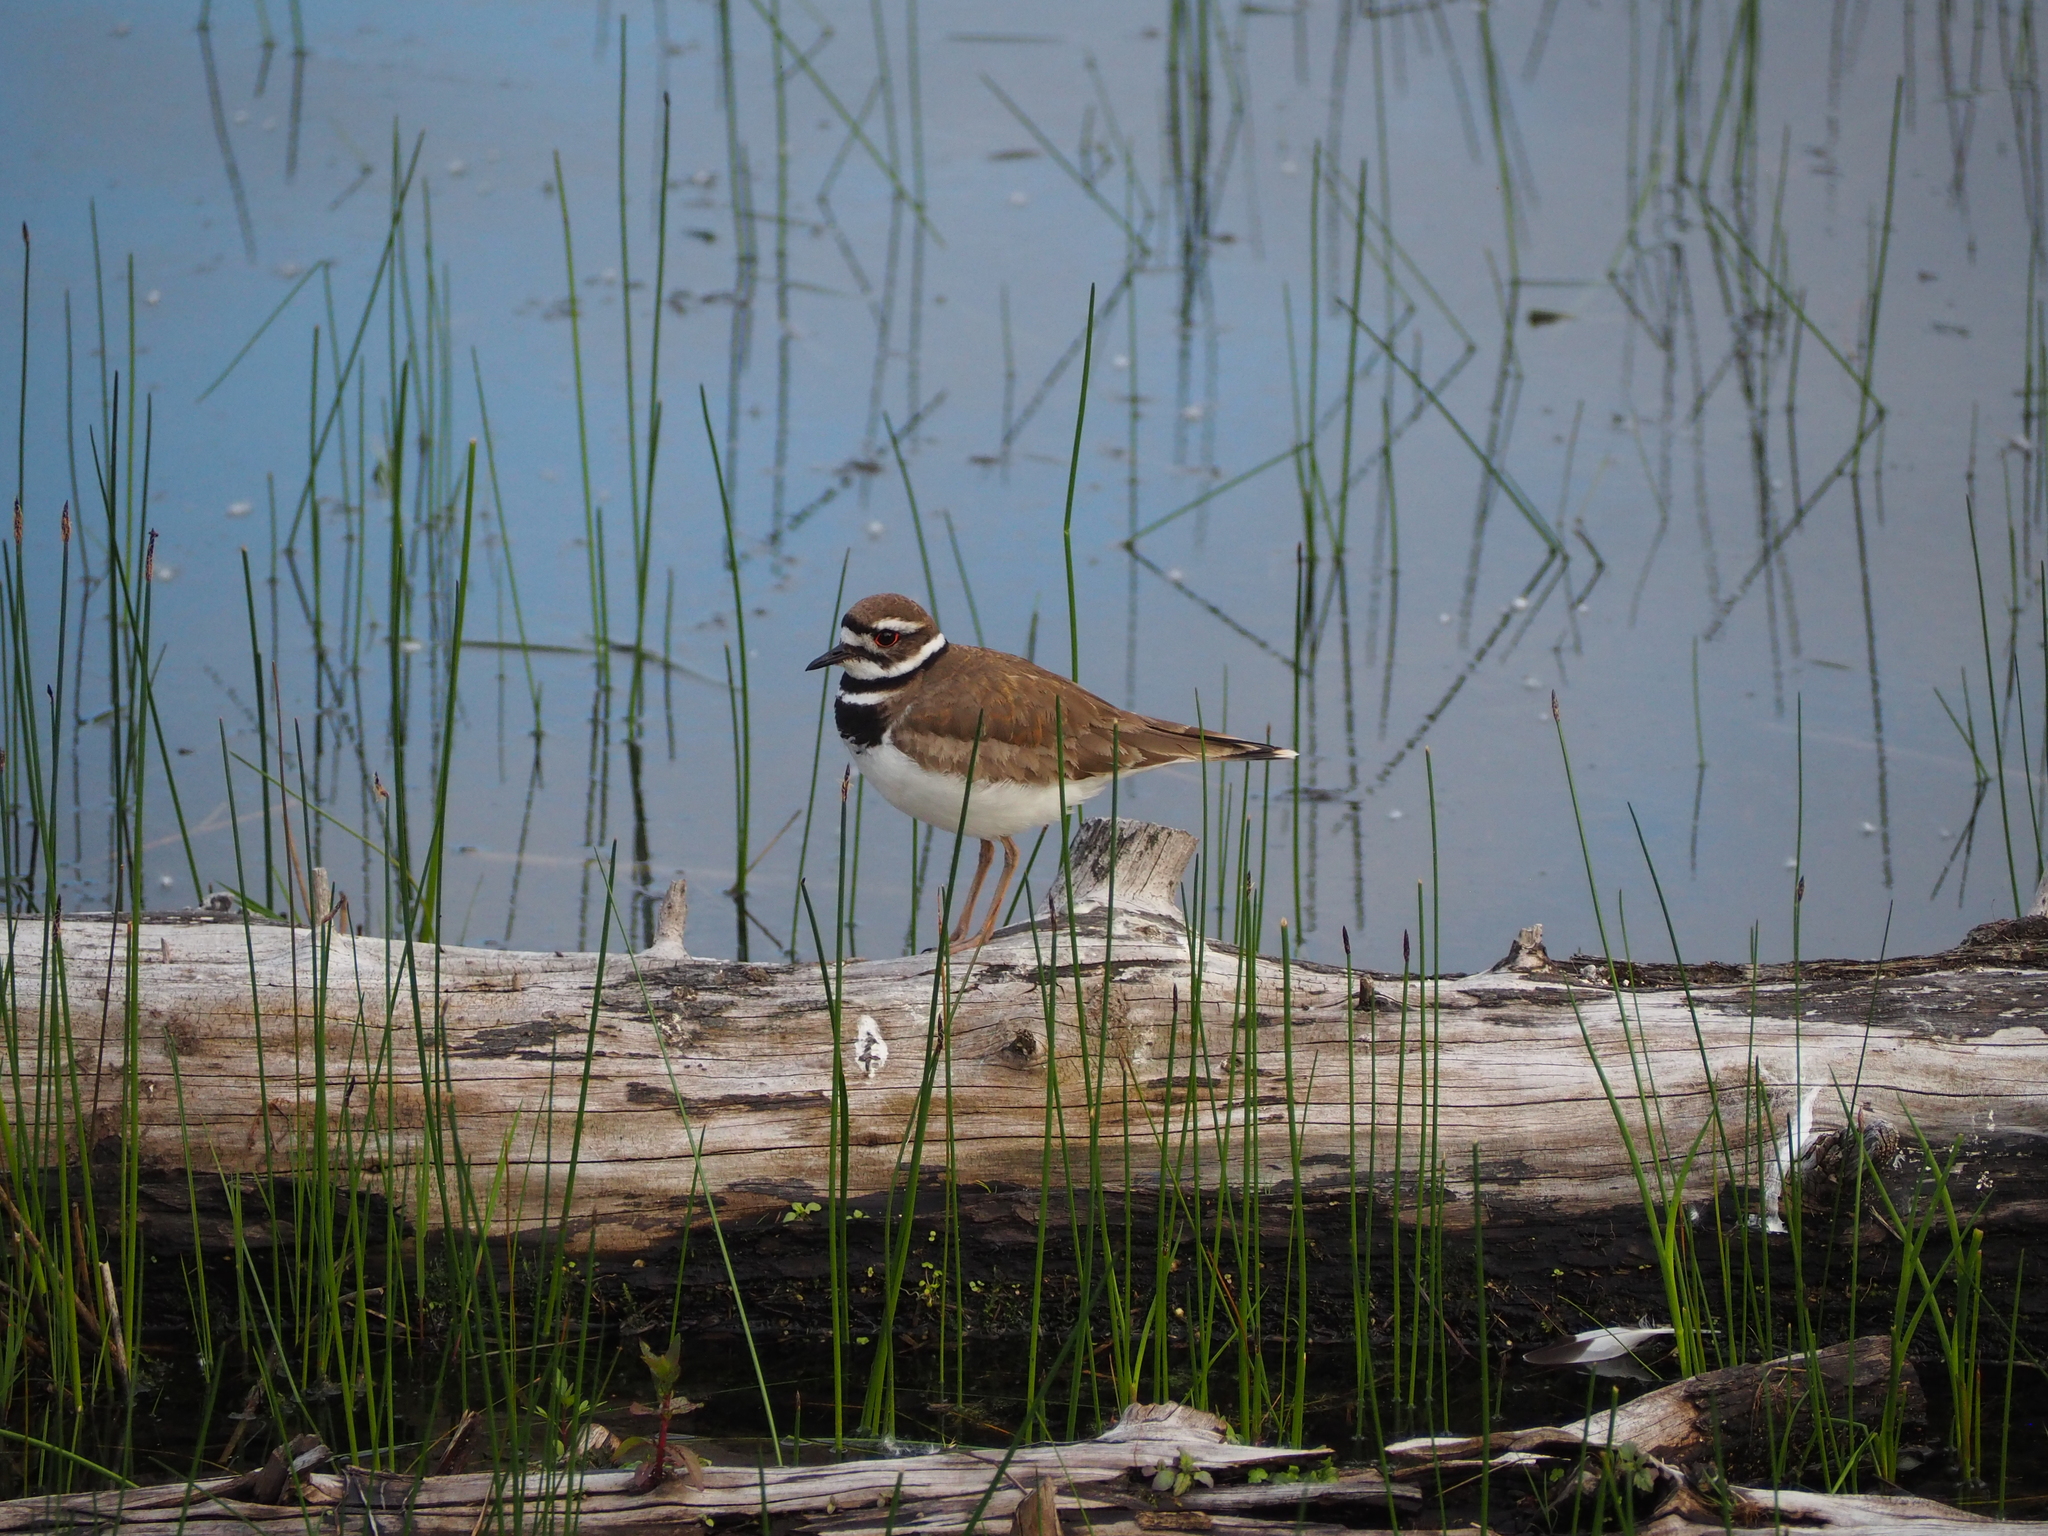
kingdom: Animalia
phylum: Chordata
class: Aves
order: Charadriiformes
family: Charadriidae
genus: Charadrius
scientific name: Charadrius vociferus
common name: Killdeer
